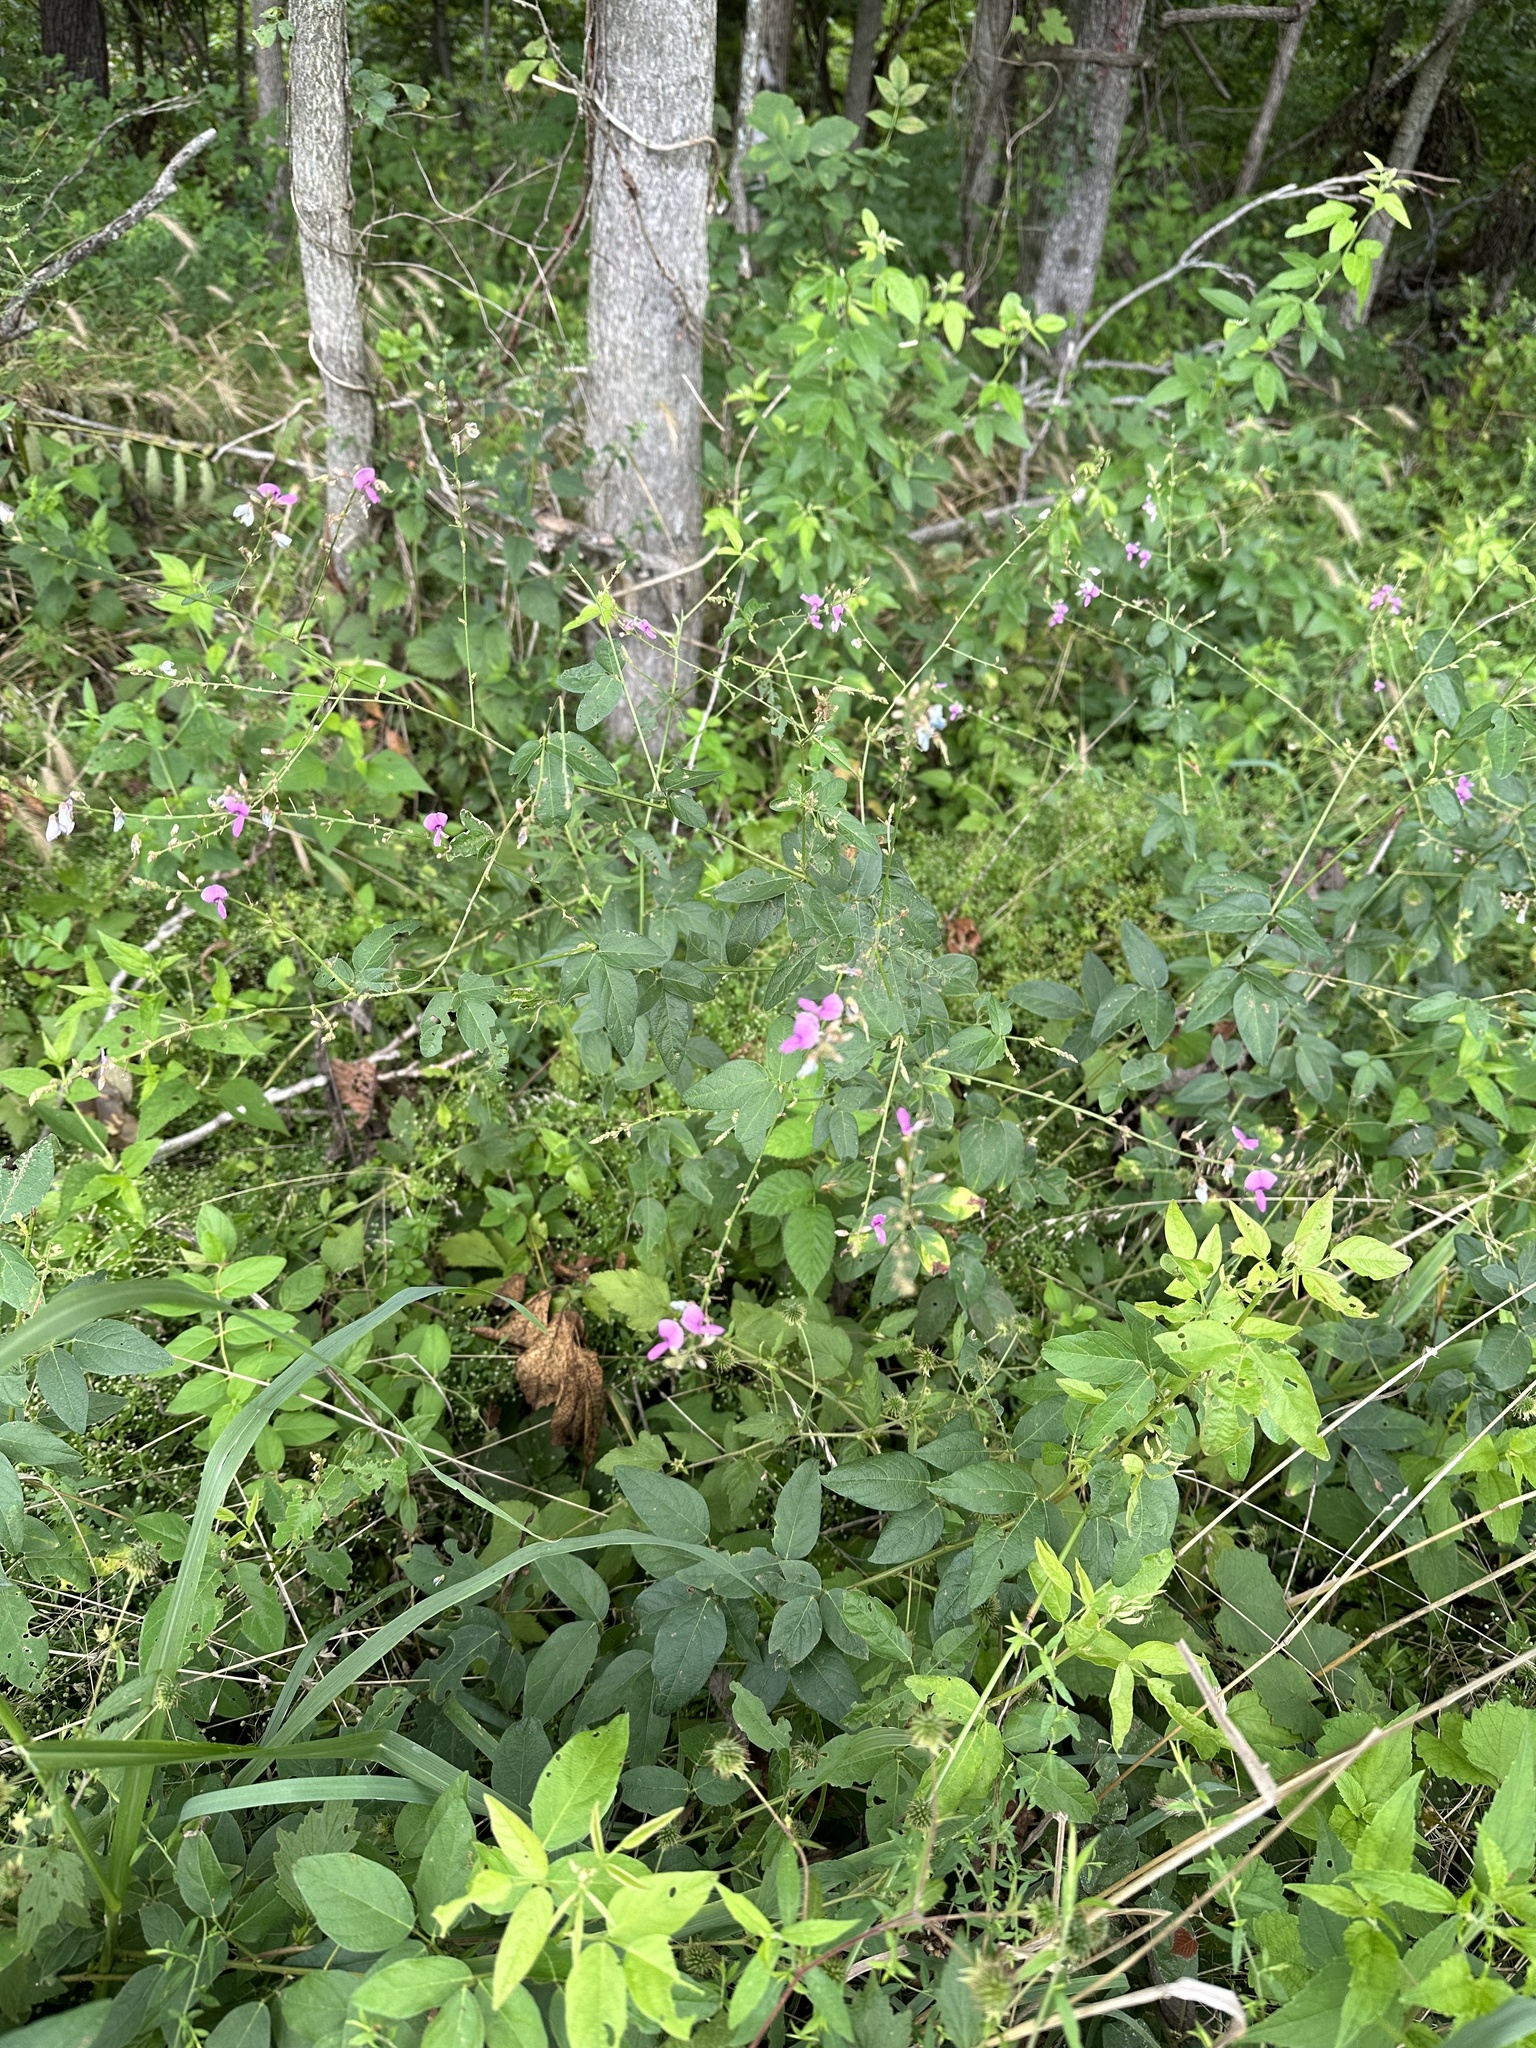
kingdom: Plantae
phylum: Tracheophyta
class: Magnoliopsida
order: Fabales
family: Fabaceae
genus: Desmodium
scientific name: Desmodium paniculatum
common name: Panicled tick-clover
